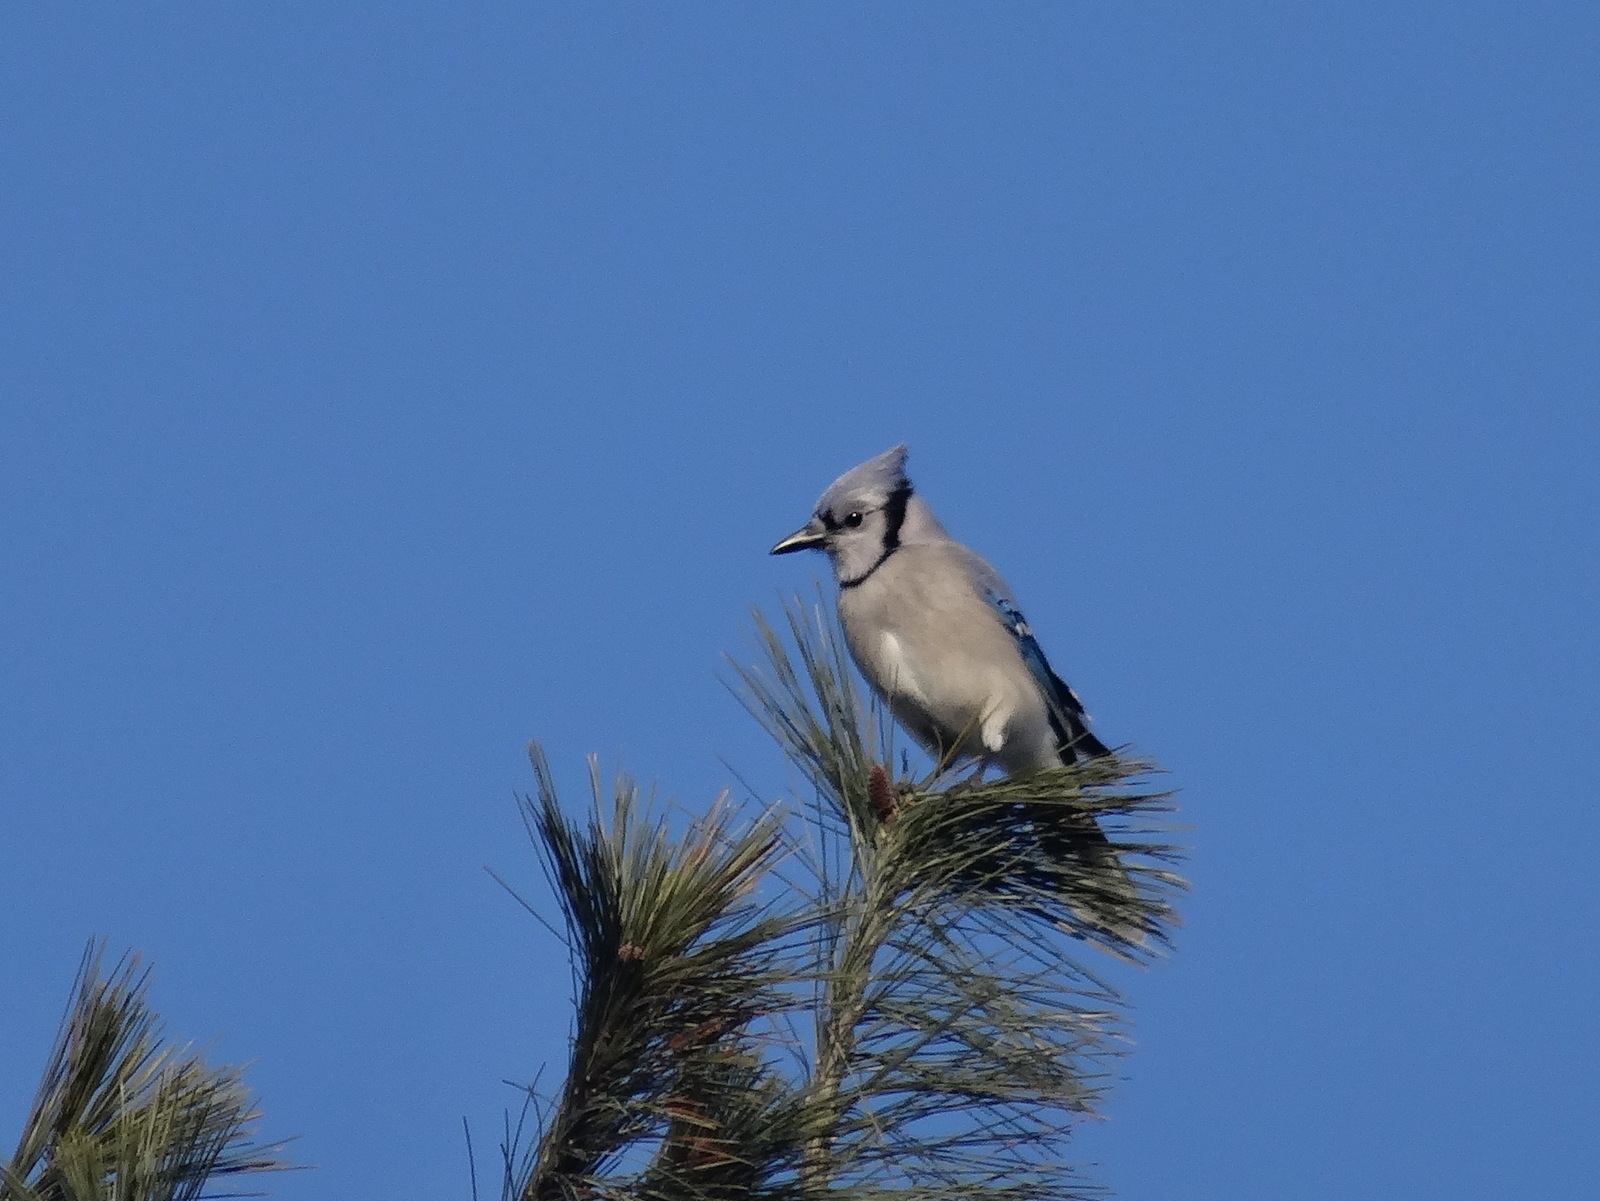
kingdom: Animalia
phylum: Chordata
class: Aves
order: Passeriformes
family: Corvidae
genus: Cyanocitta
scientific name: Cyanocitta cristata
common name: Blue jay
